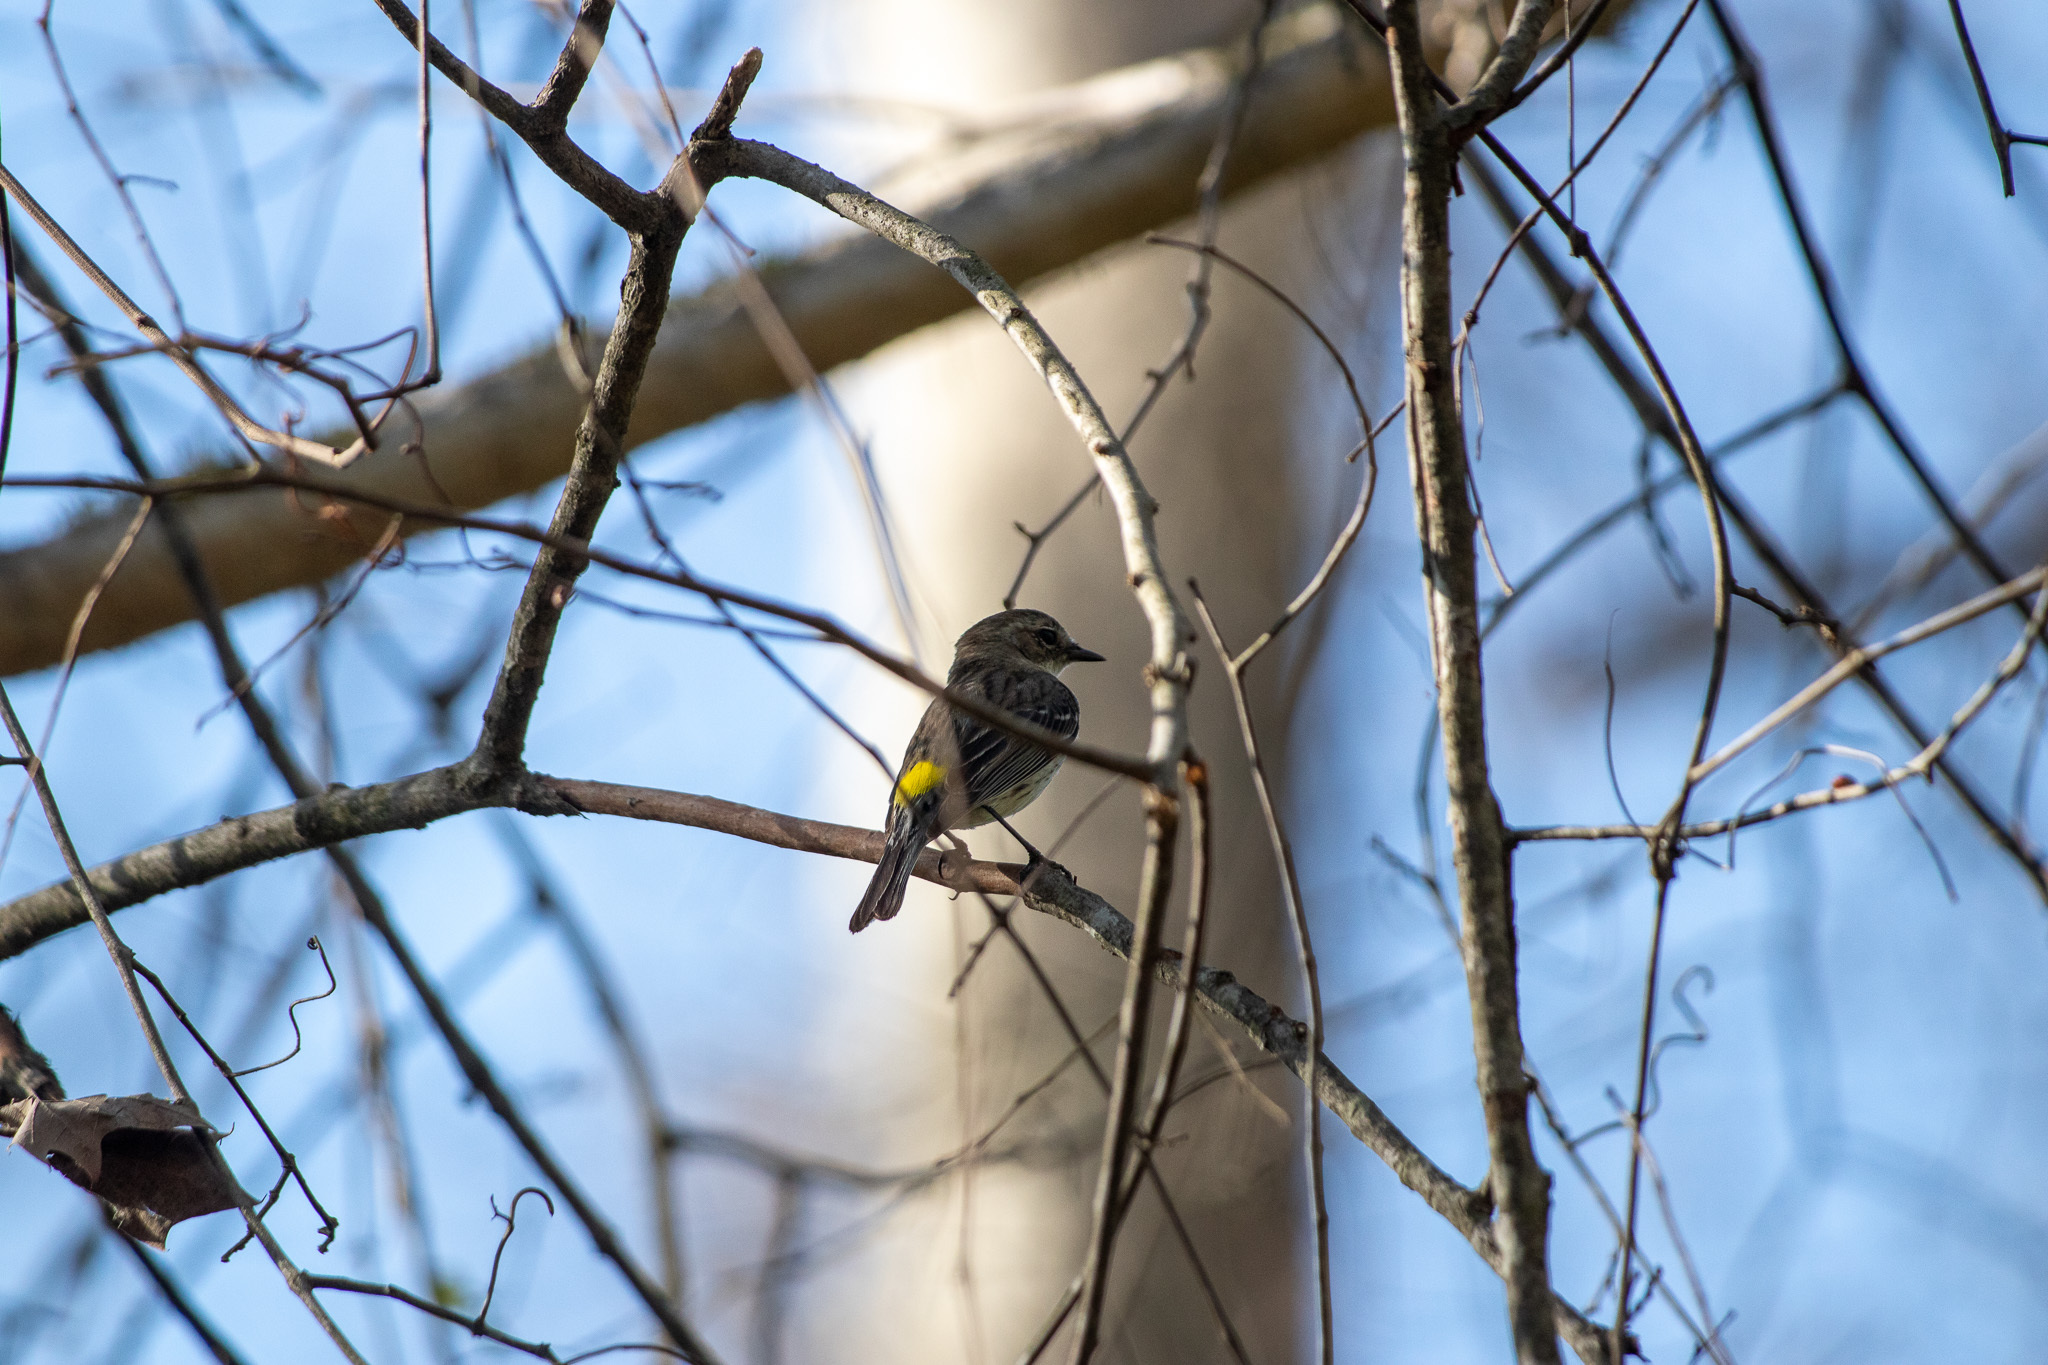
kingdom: Animalia
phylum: Chordata
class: Aves
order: Passeriformes
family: Parulidae
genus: Setophaga
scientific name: Setophaga coronata
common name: Myrtle warbler
